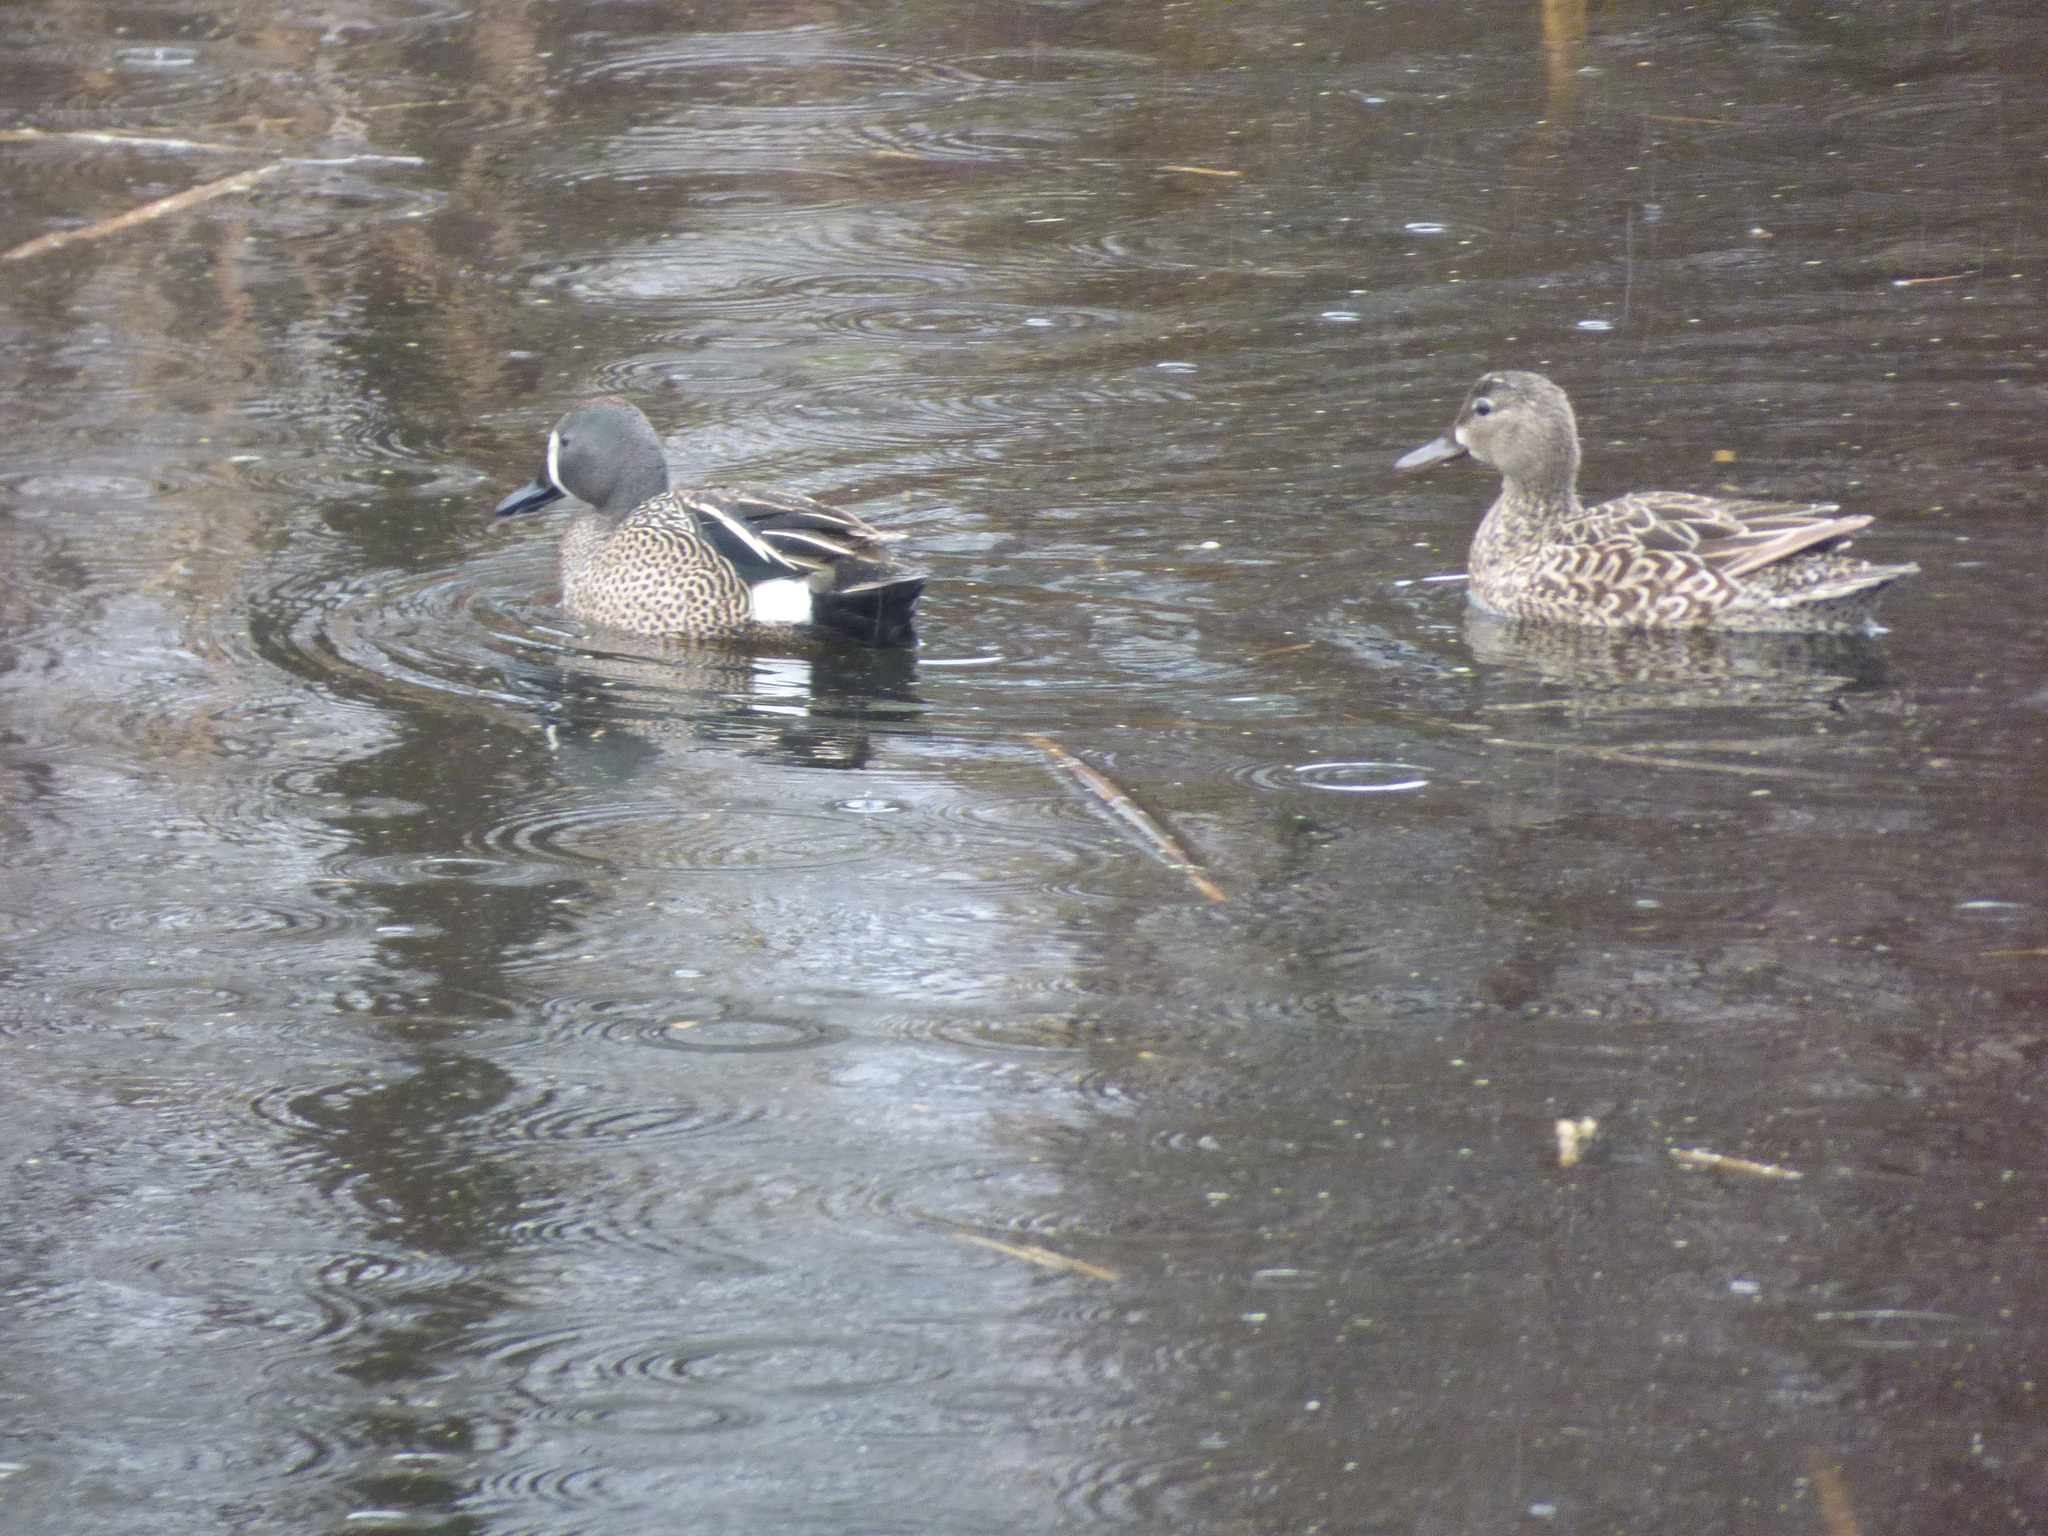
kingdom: Animalia
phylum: Chordata
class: Aves
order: Anseriformes
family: Anatidae
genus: Spatula
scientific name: Spatula discors
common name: Blue-winged teal
